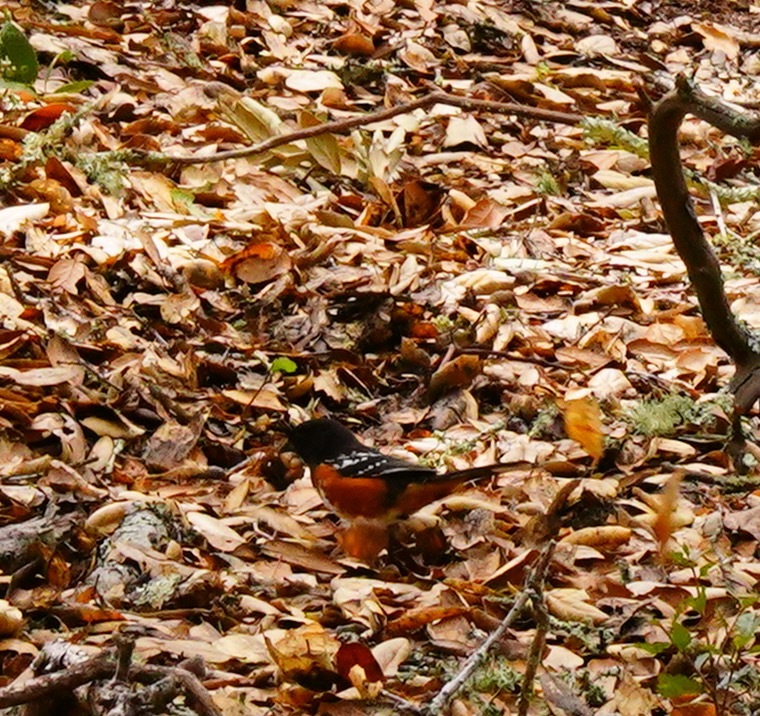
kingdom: Animalia
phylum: Chordata
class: Aves
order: Passeriformes
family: Passerellidae
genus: Pipilo
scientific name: Pipilo maculatus
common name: Spotted towhee
